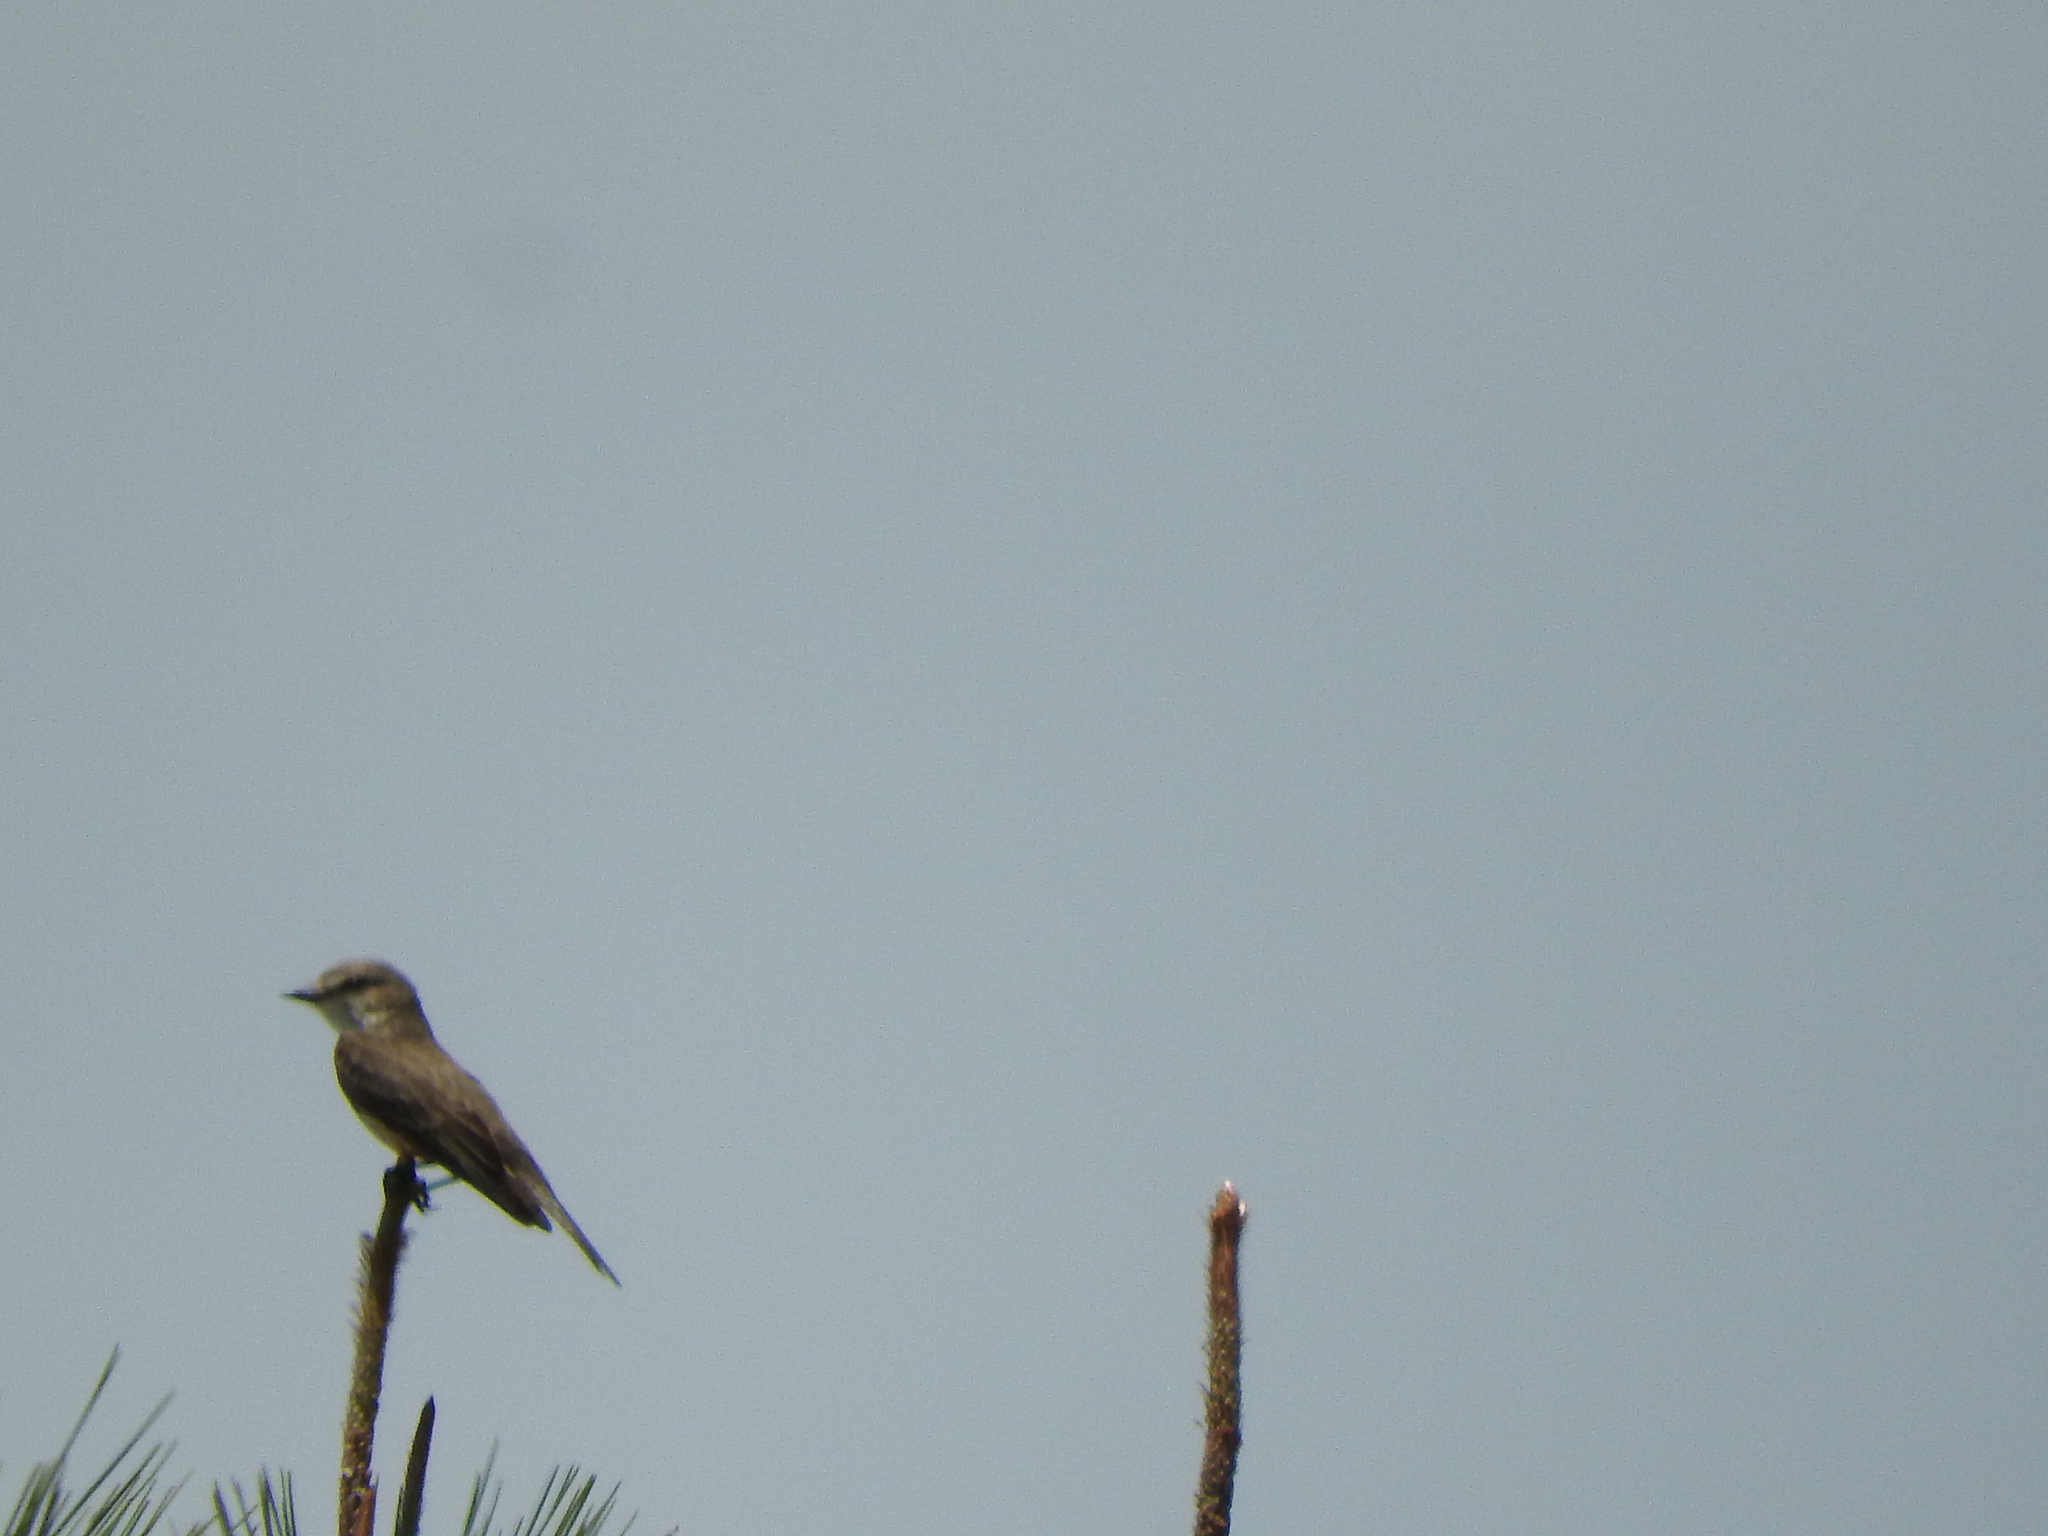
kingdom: Animalia
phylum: Chordata
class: Aves
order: Passeriformes
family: Tyrannidae
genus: Pyrocephalus
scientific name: Pyrocephalus rubinus
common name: Vermilion flycatcher
